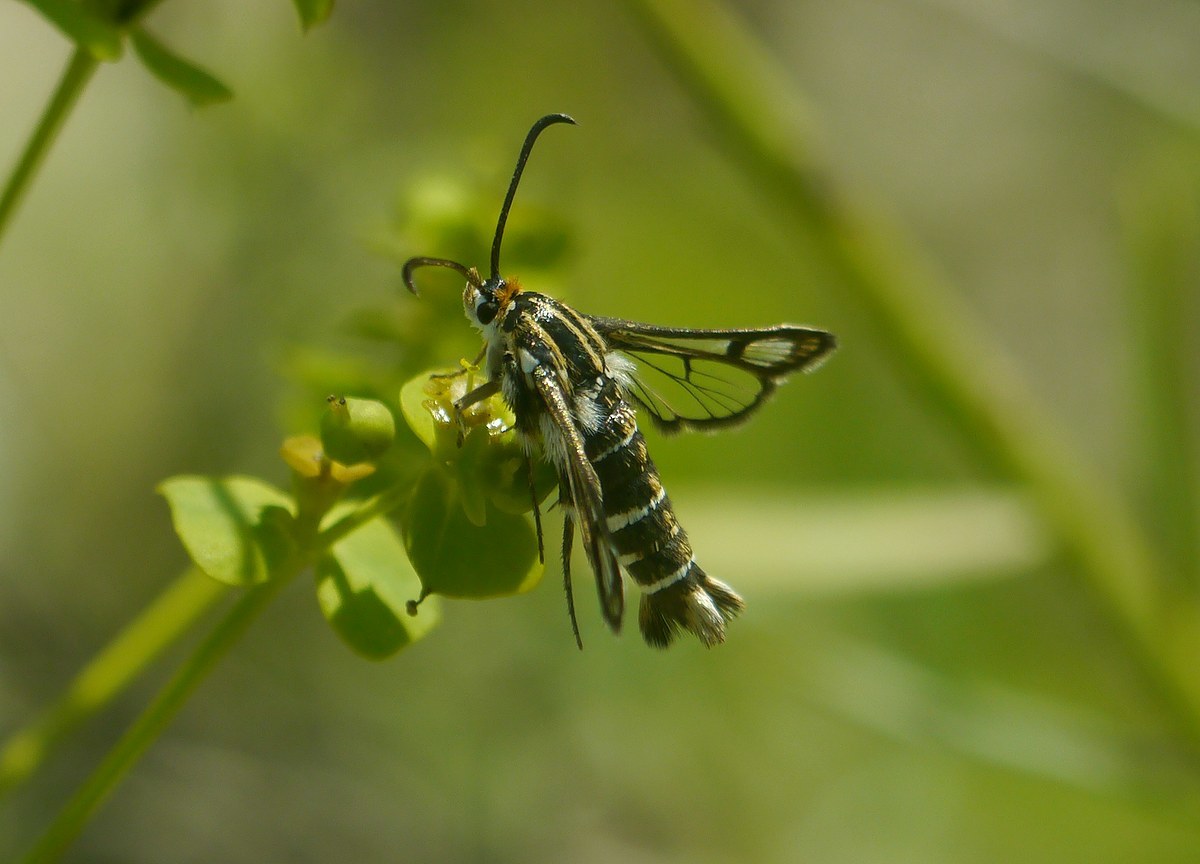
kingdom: Animalia
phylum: Arthropoda
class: Insecta
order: Lepidoptera
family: Sesiidae
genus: Chamaesphecia
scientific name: Chamaesphecia bibioniformis
